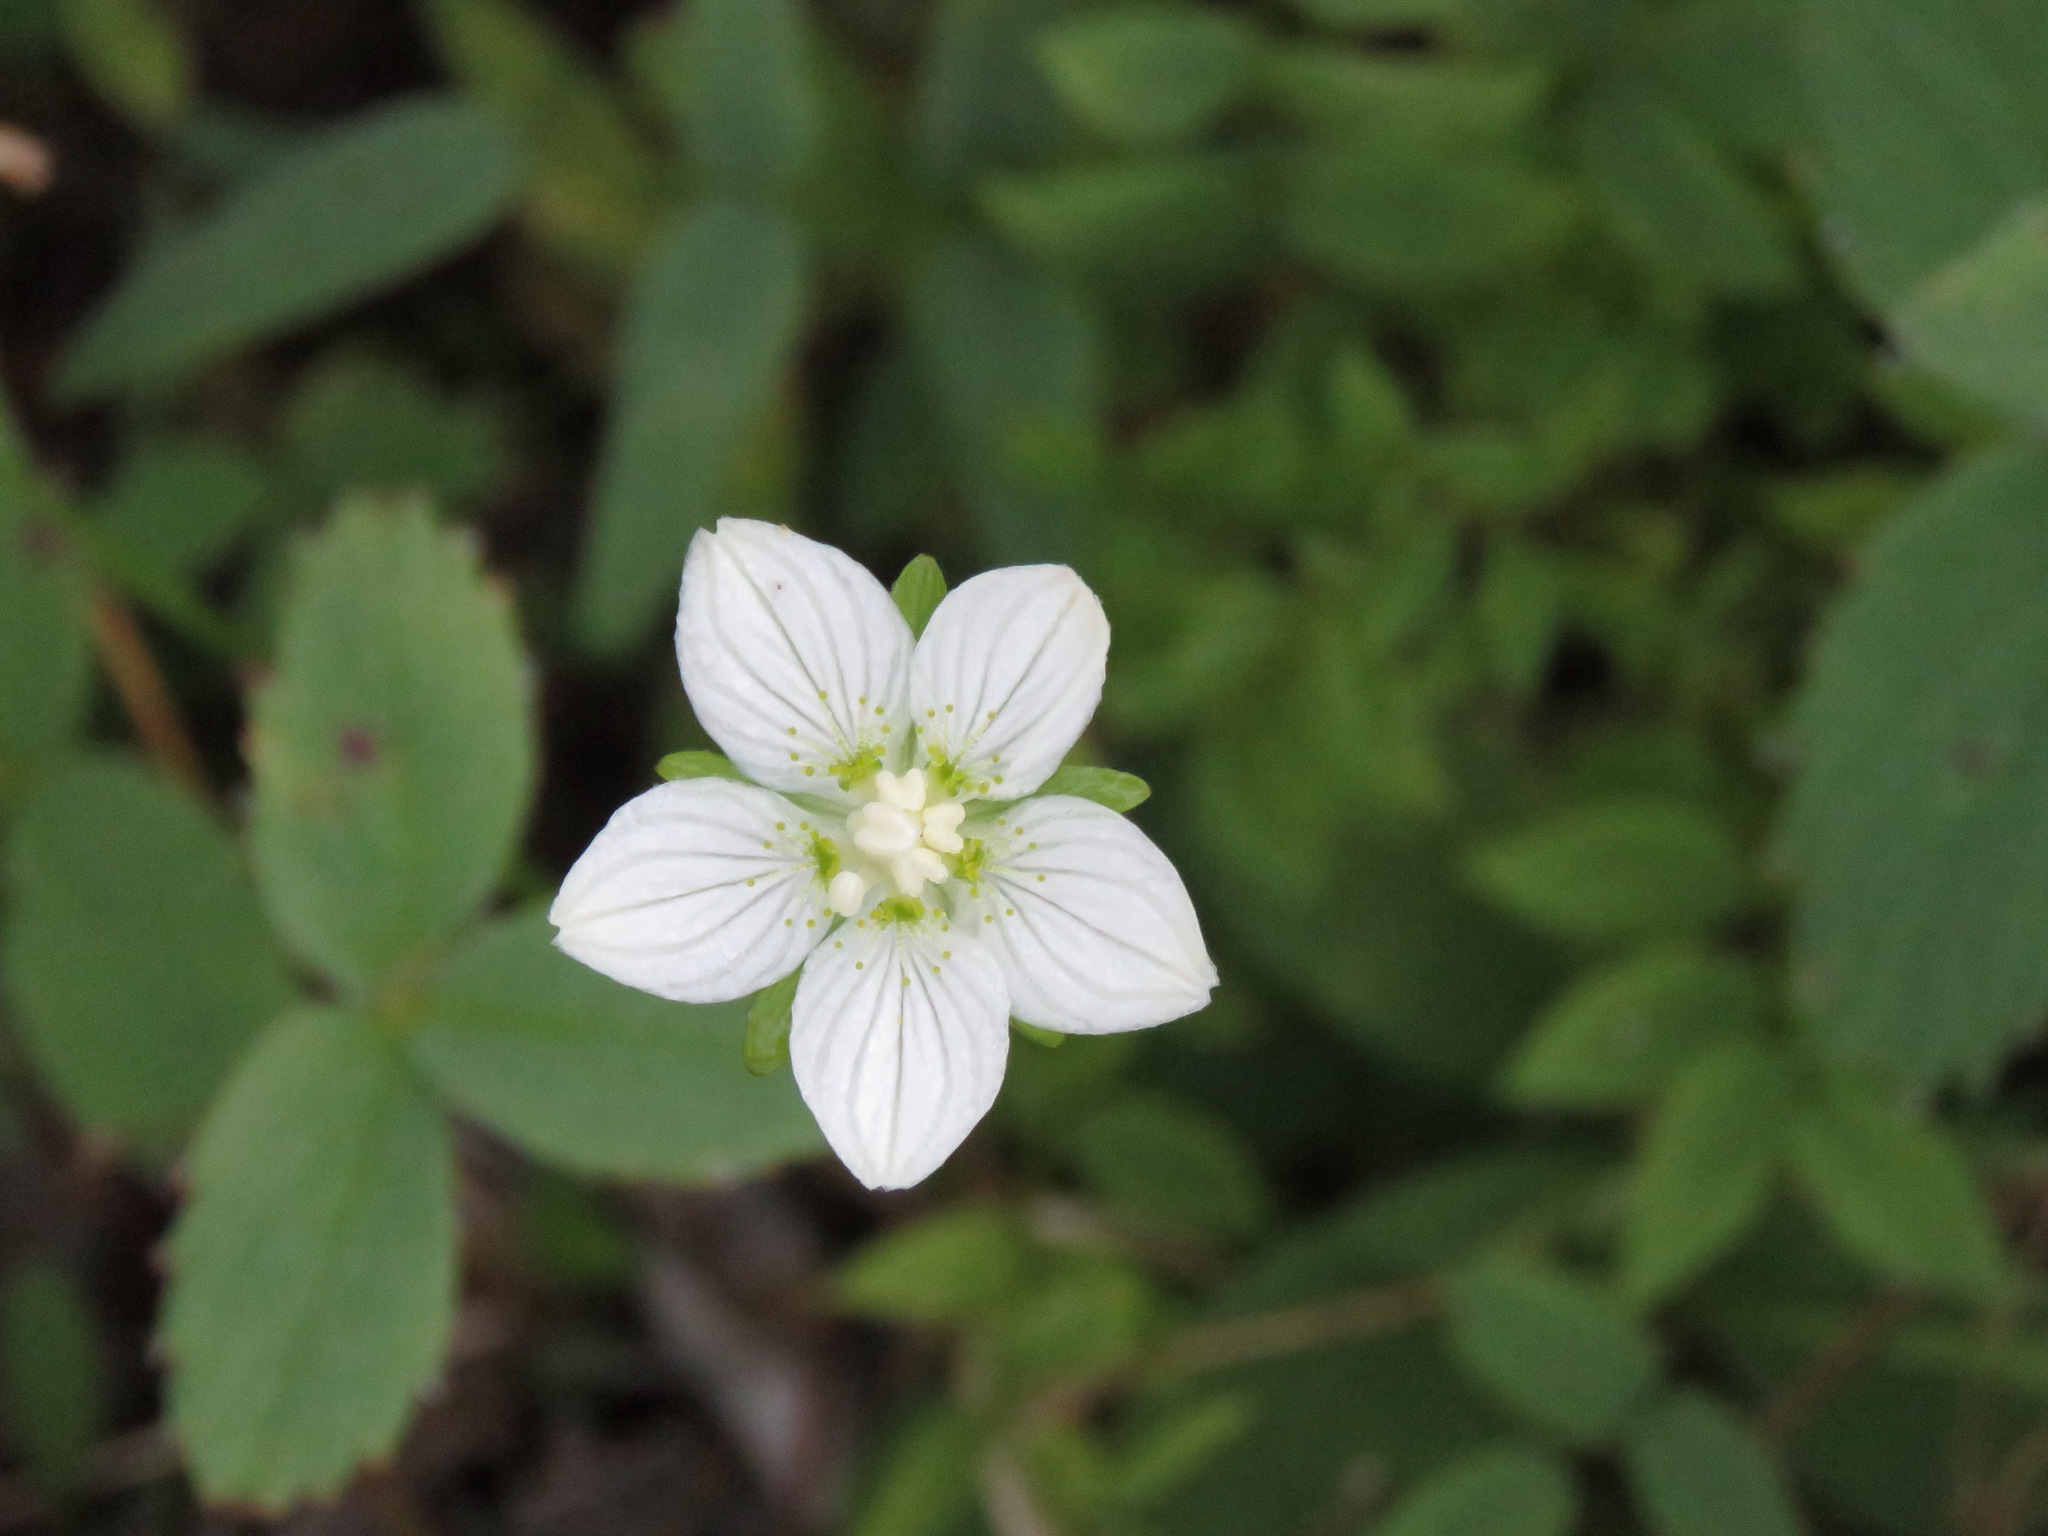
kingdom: Plantae
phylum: Tracheophyta
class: Magnoliopsida
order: Celastrales
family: Parnassiaceae
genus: Parnassia
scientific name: Parnassia palustris
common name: Grass-of-parnassus
